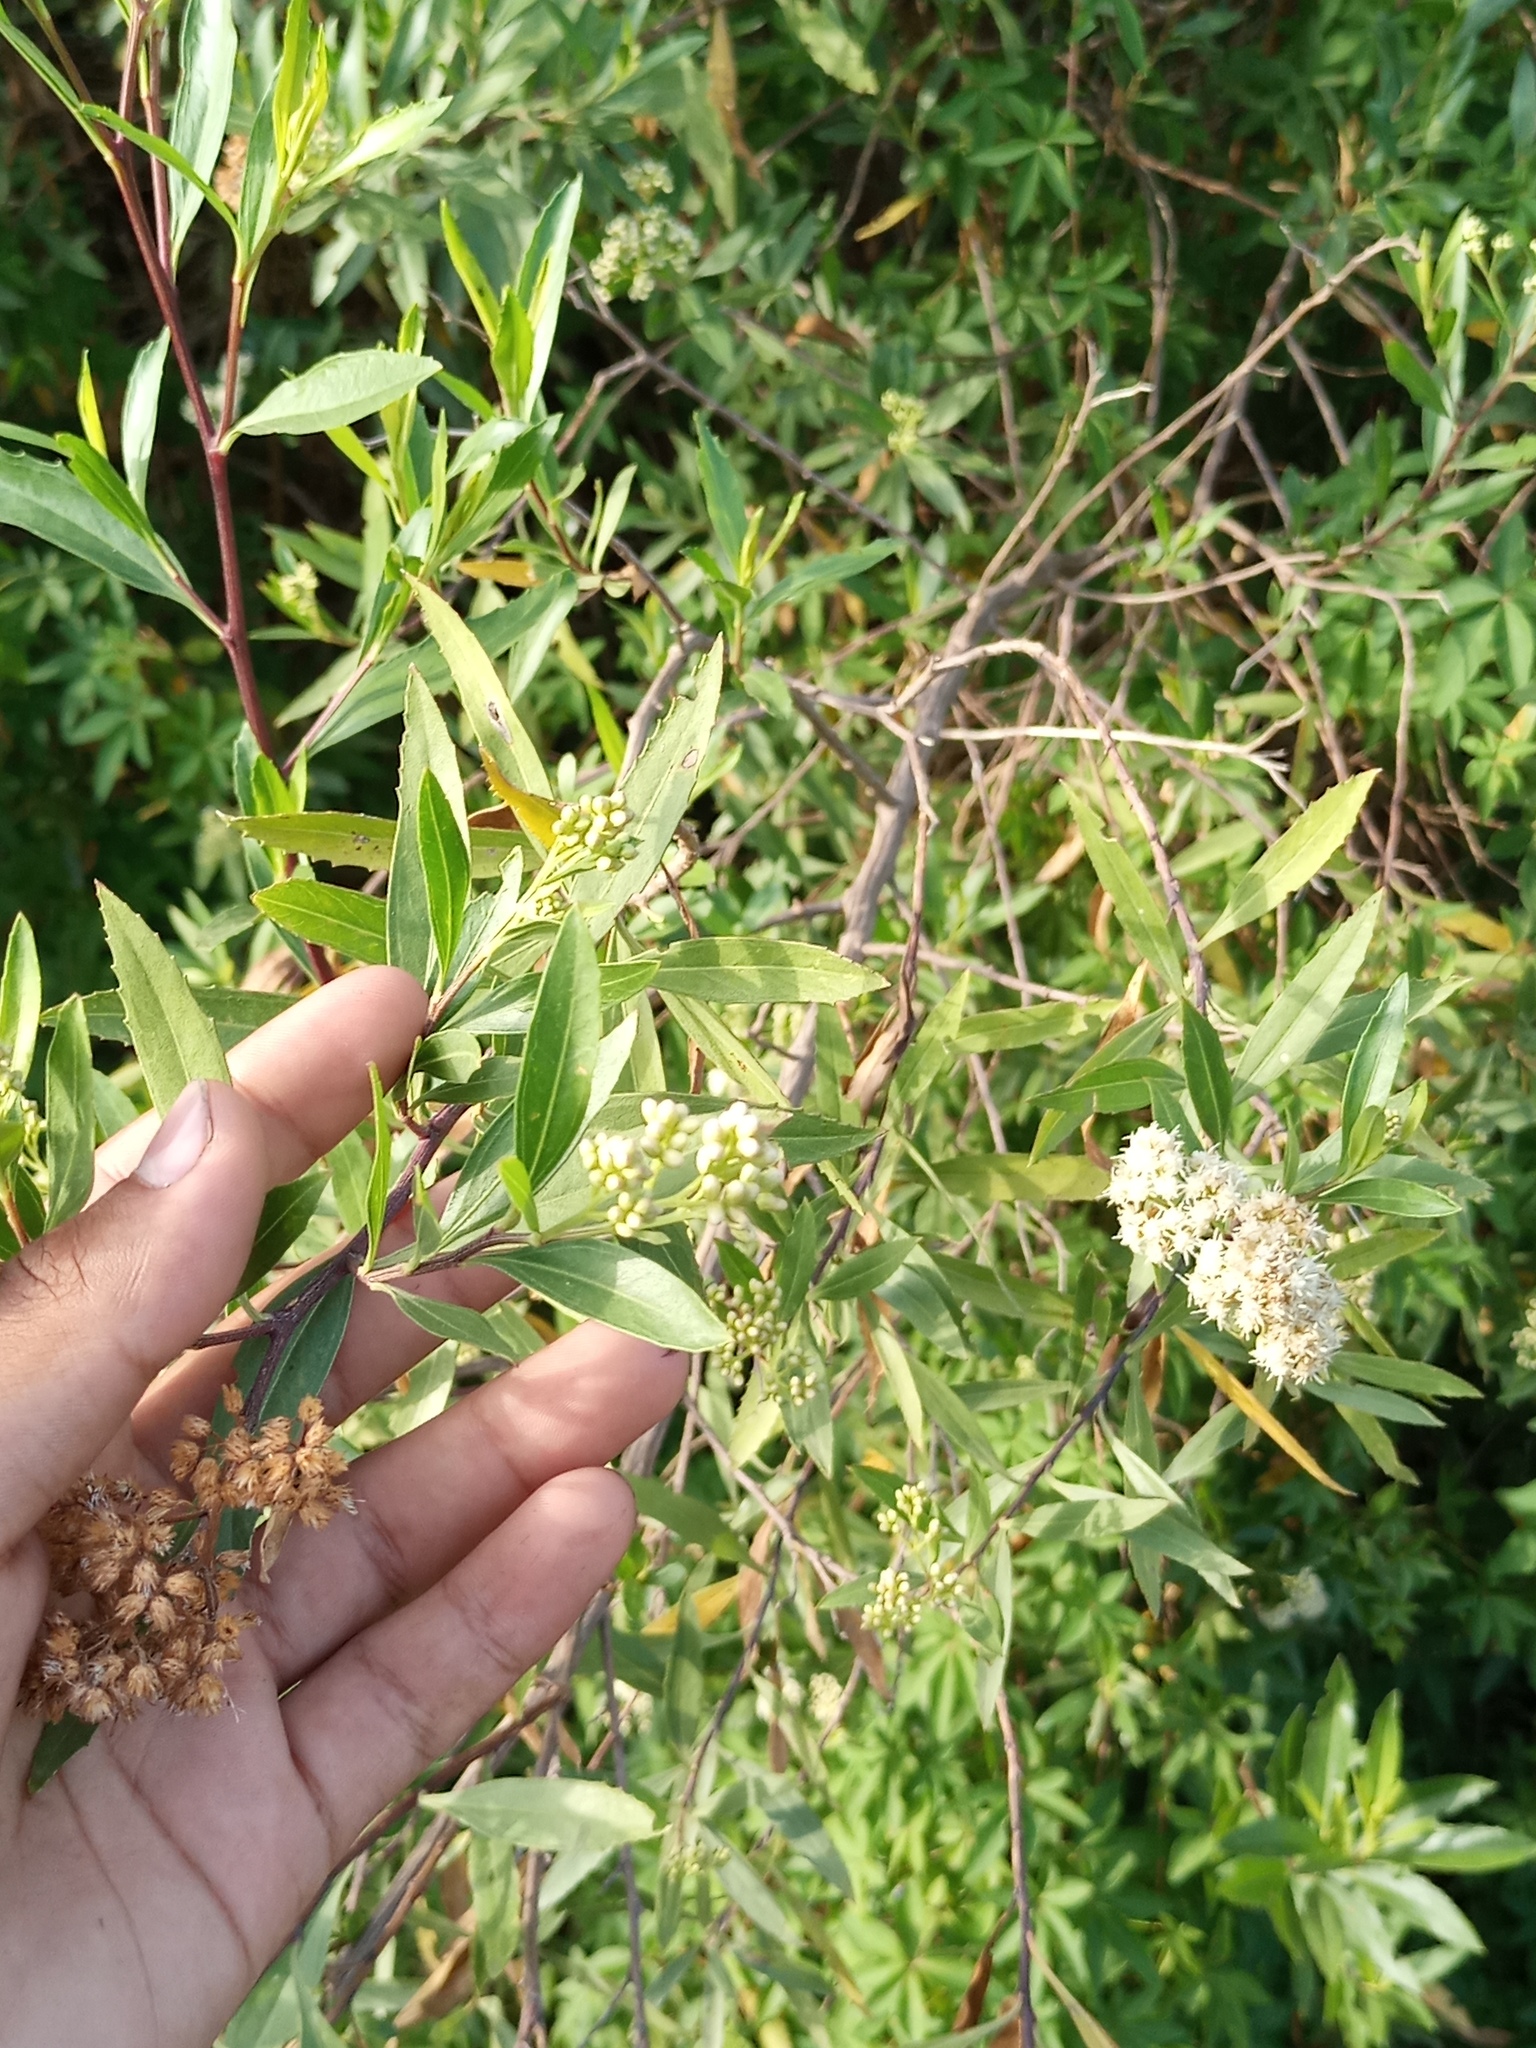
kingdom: Plantae
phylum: Tracheophyta
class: Magnoliopsida
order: Asterales
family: Asteraceae
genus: Baccharis
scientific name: Baccharis salicifolia
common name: Sticky baccharis
